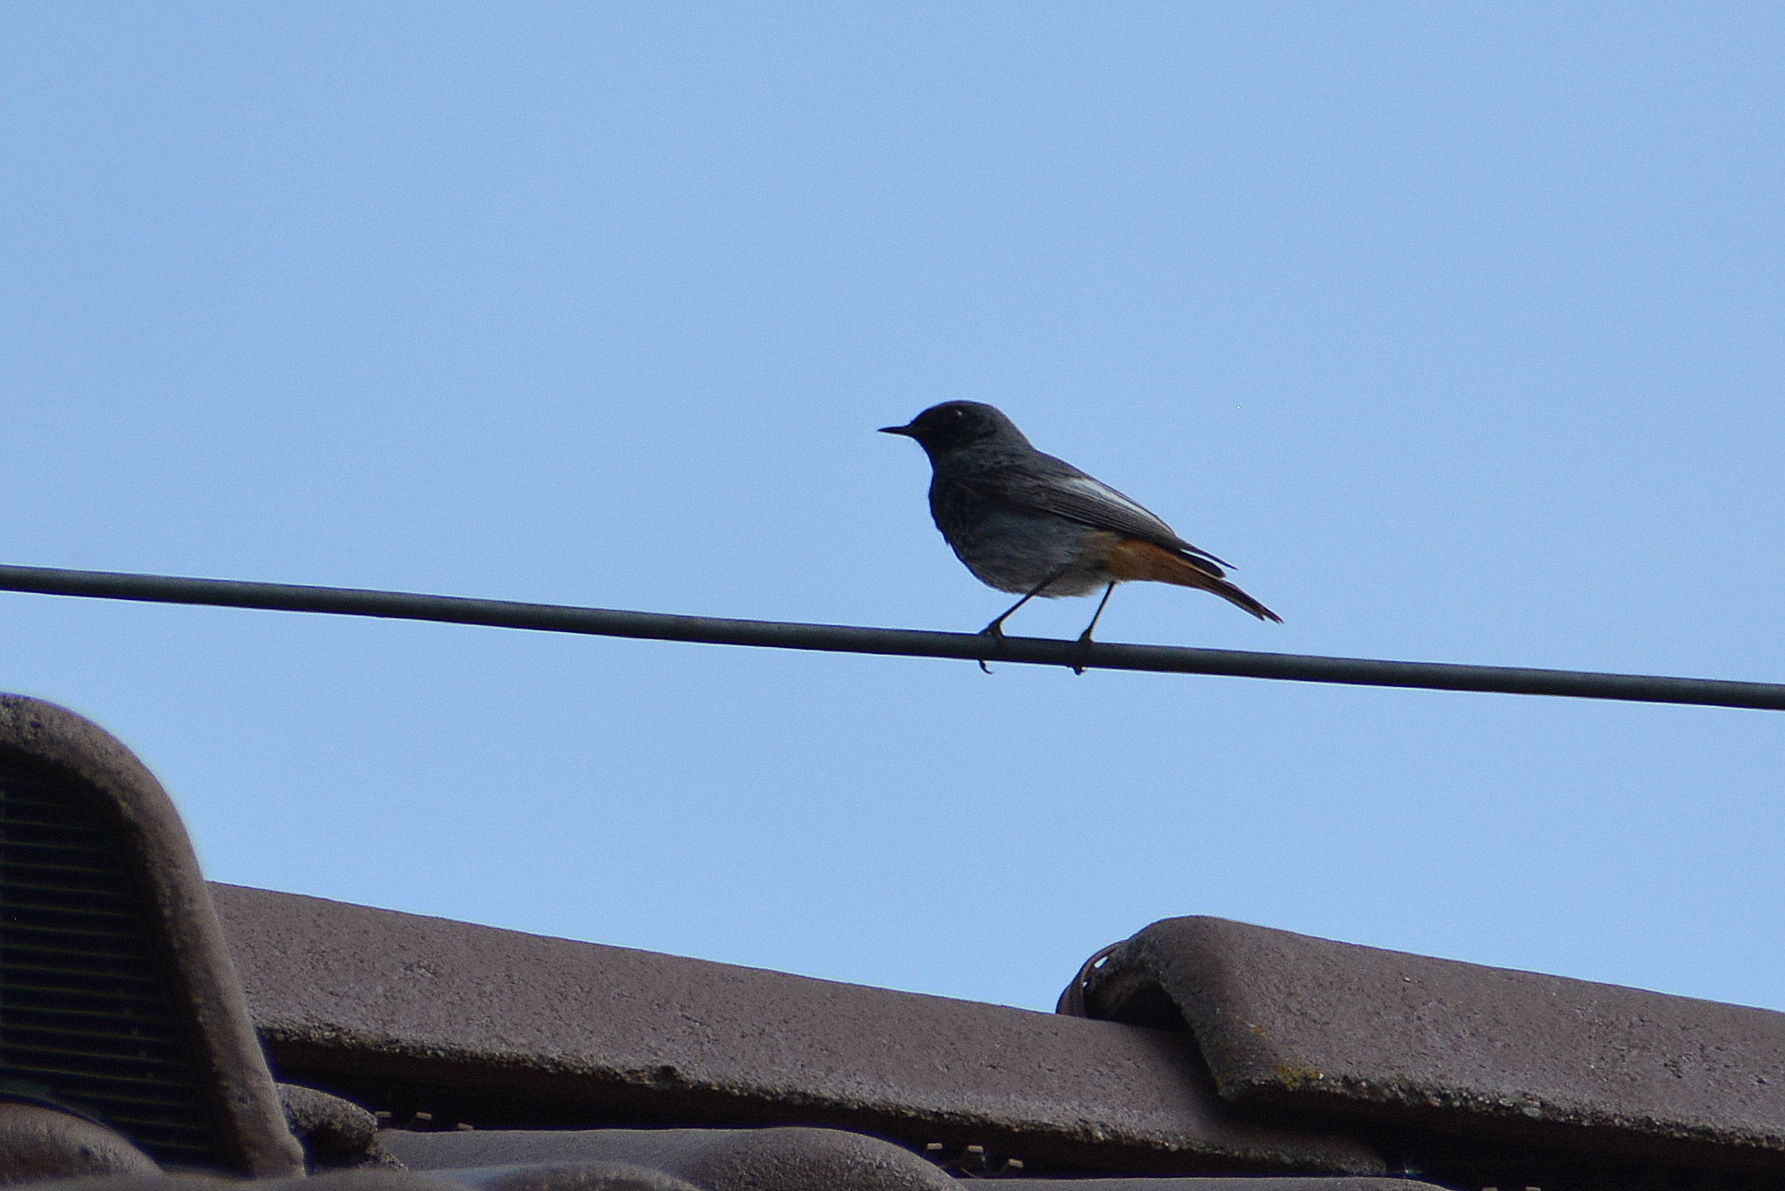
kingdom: Animalia
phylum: Chordata
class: Aves
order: Passeriformes
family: Muscicapidae
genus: Phoenicurus
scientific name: Phoenicurus ochruros
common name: Black redstart
